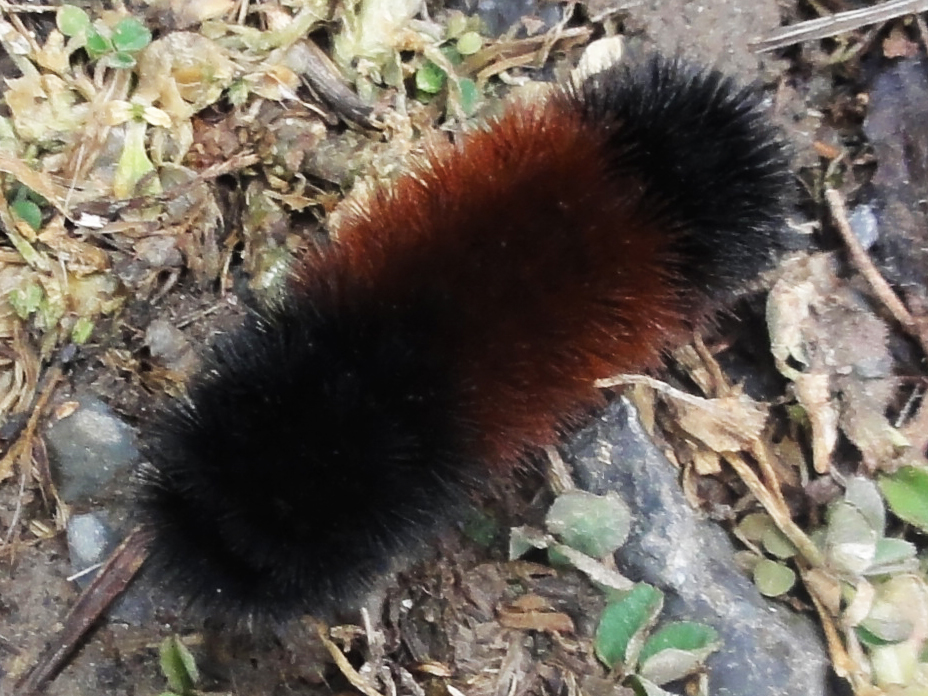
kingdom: Animalia
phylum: Arthropoda
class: Insecta
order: Lepidoptera
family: Erebidae
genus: Pyrrharctia
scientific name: Pyrrharctia isabella
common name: Isabella tiger moth
